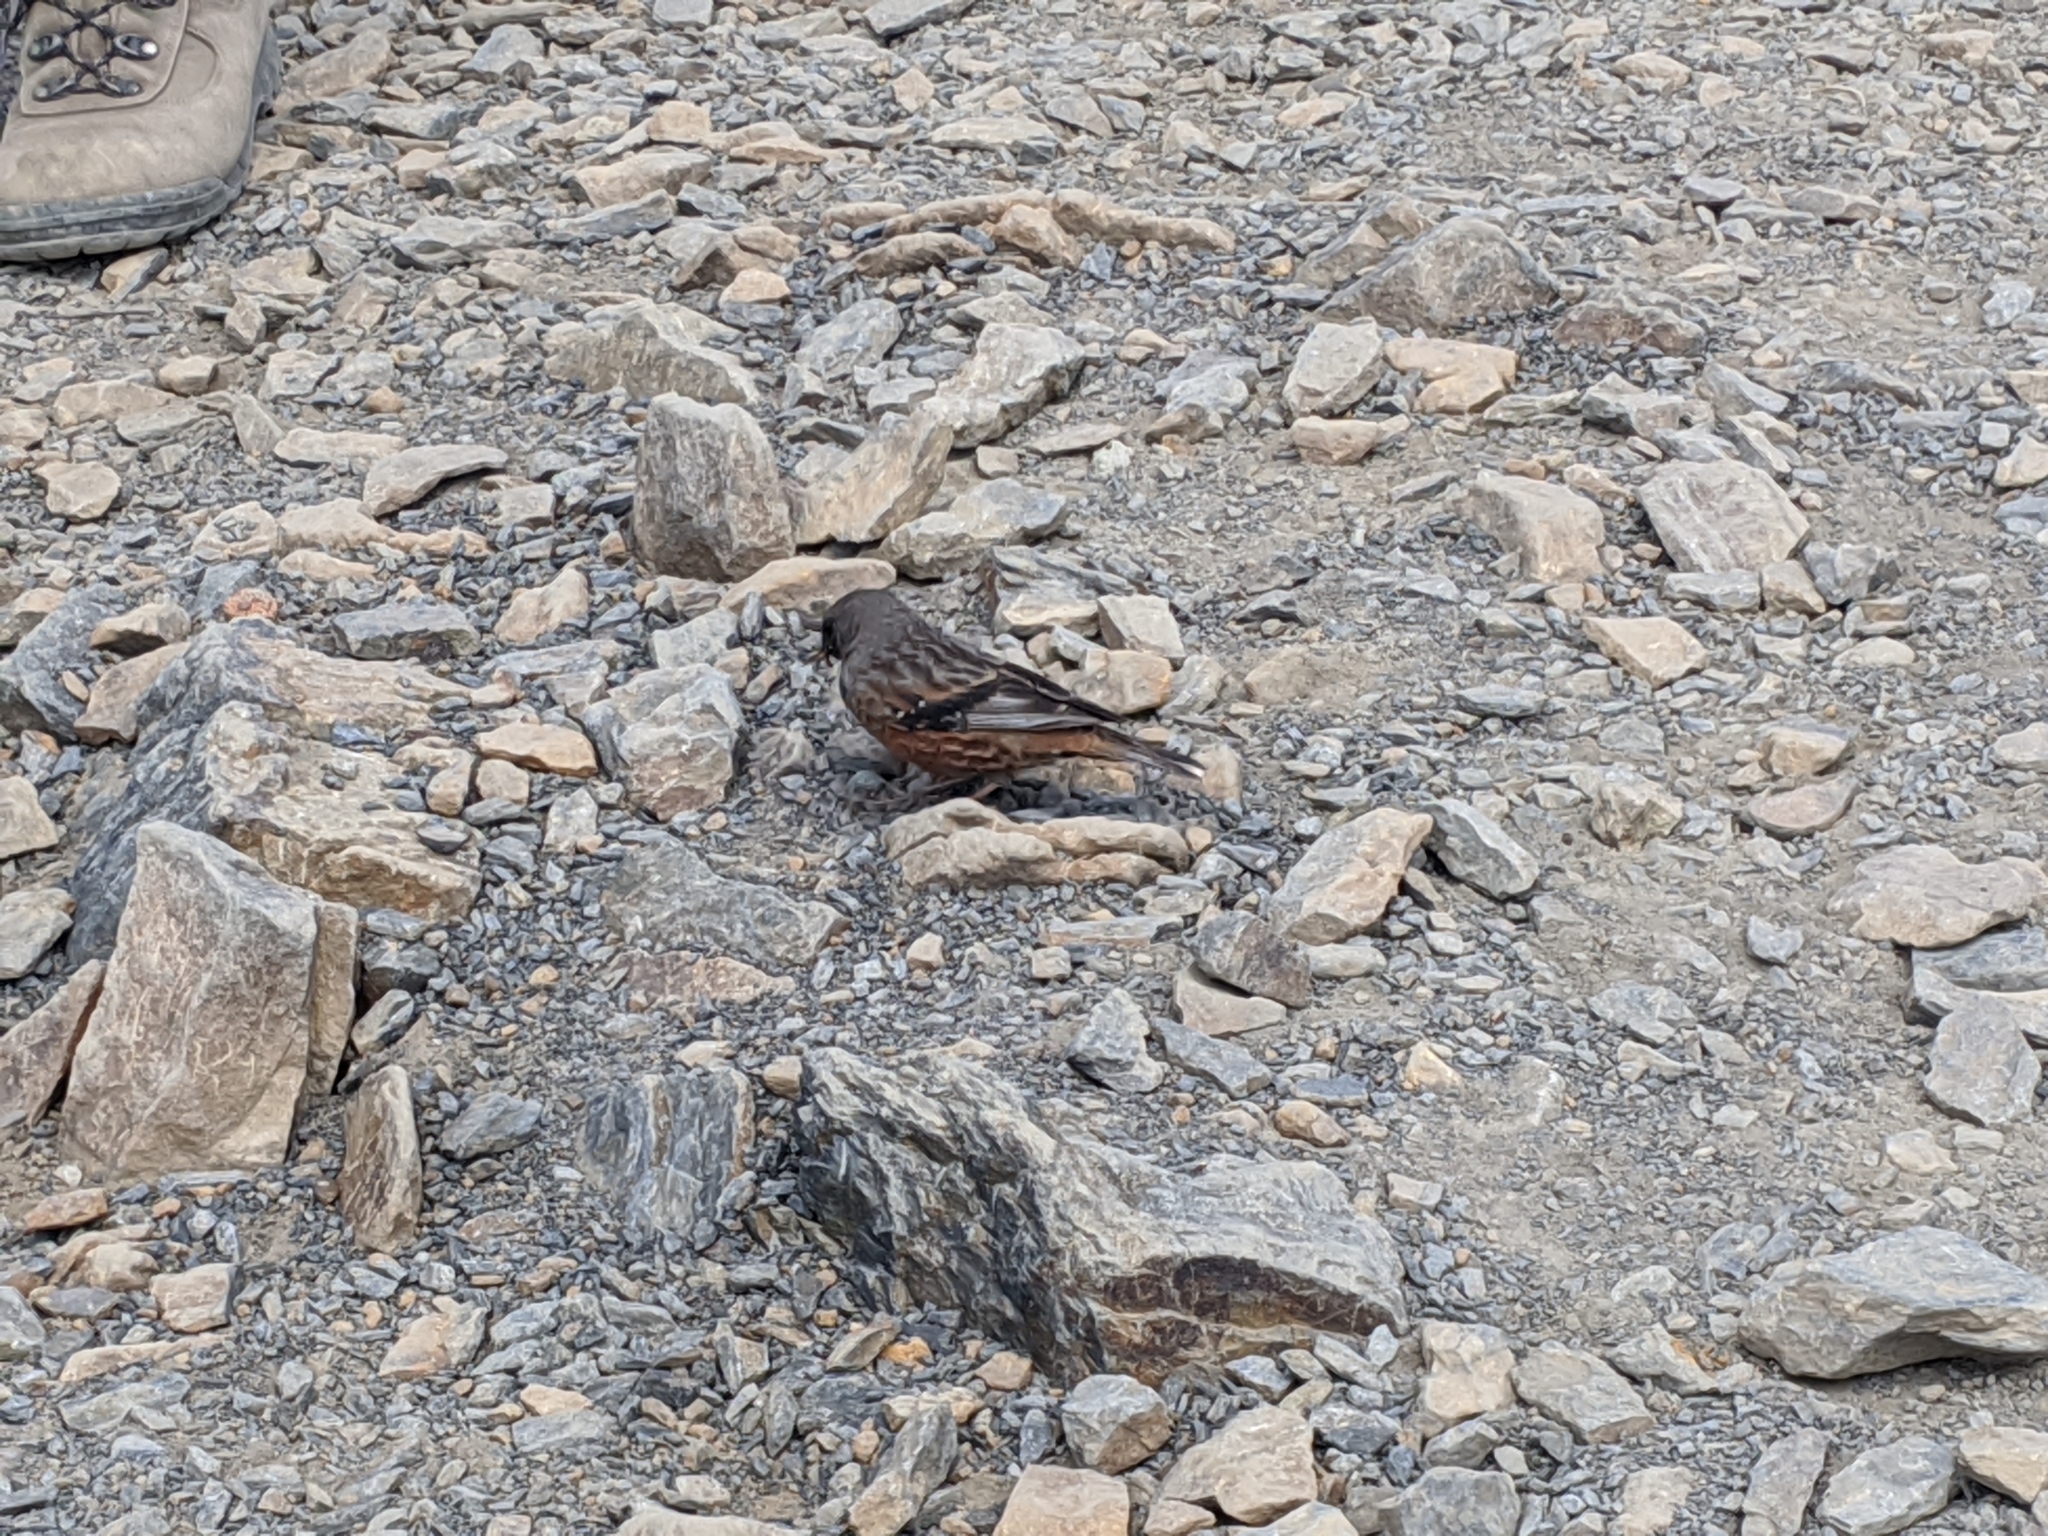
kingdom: Animalia
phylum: Chordata
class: Aves
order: Passeriformes
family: Prunellidae
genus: Prunella
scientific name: Prunella collaris
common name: Alpine accentor
